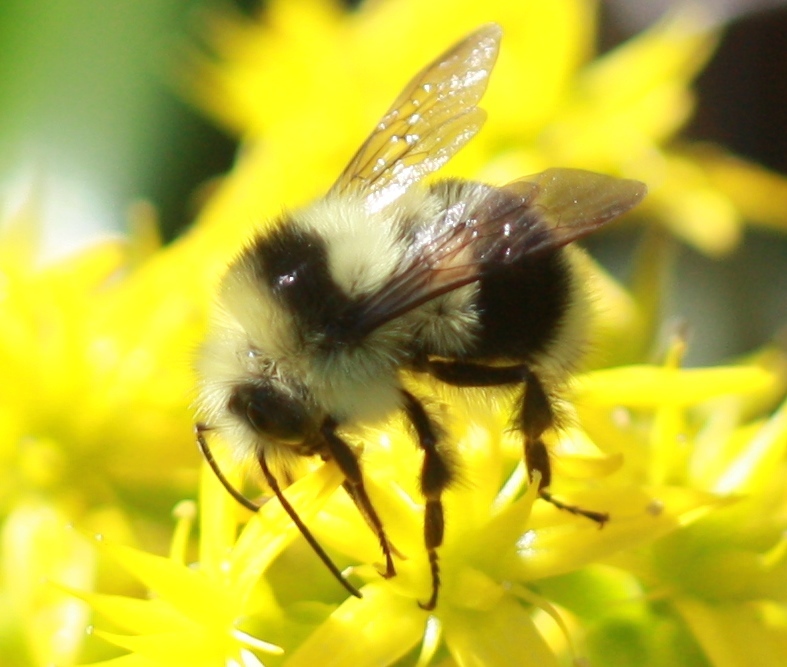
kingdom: Animalia
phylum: Arthropoda
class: Insecta
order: Hymenoptera
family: Apidae
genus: Bombus
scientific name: Bombus melanopygus
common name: Black tail bumble bee
